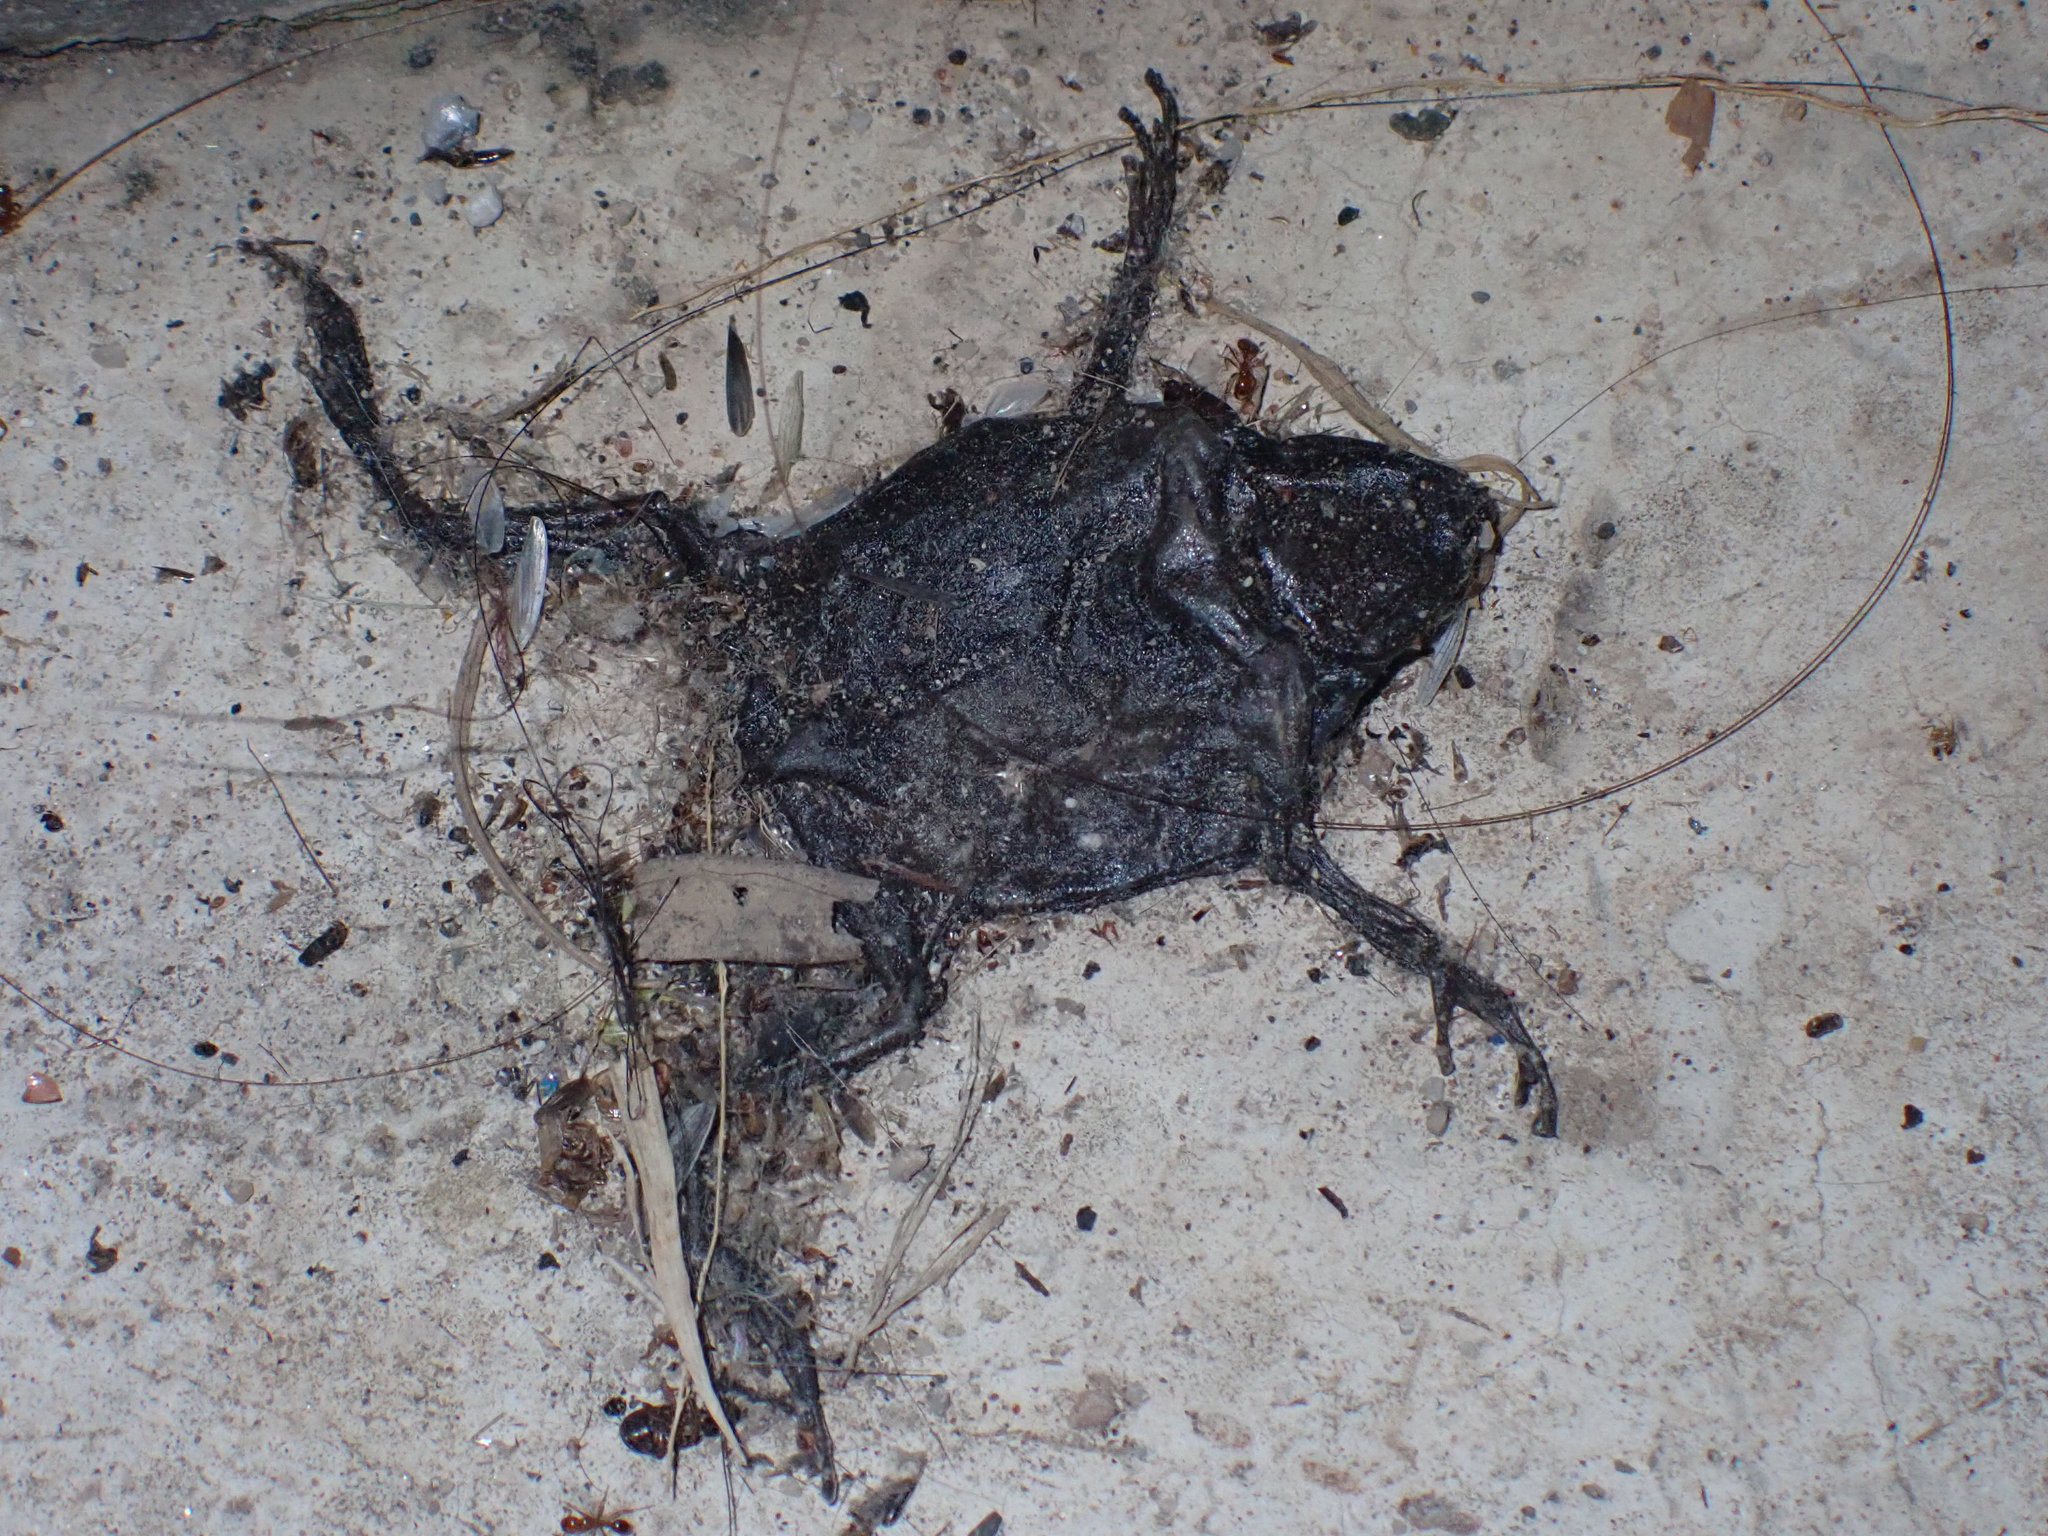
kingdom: Animalia
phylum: Chordata
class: Amphibia
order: Anura
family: Microhylidae
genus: Kaloula
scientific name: Kaloula pulchra
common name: Common,banded bullfrog
